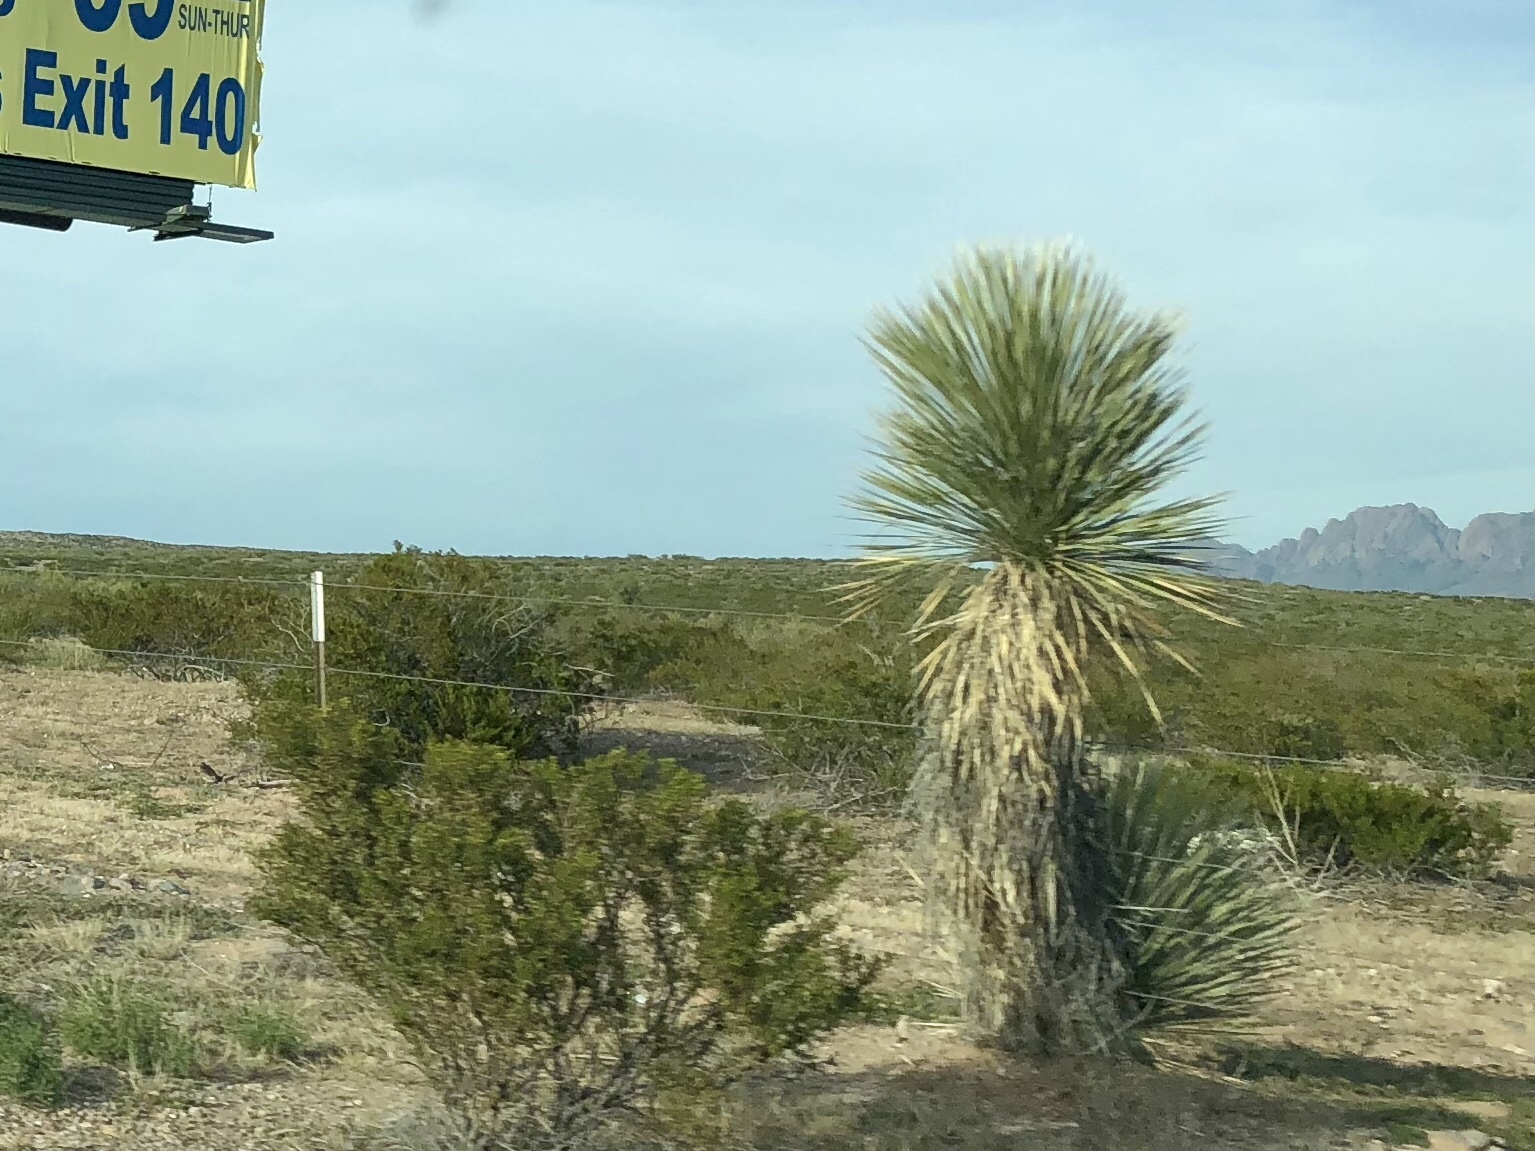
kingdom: Plantae
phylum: Tracheophyta
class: Liliopsida
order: Asparagales
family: Asparagaceae
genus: Yucca
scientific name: Yucca elata
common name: Palmella
